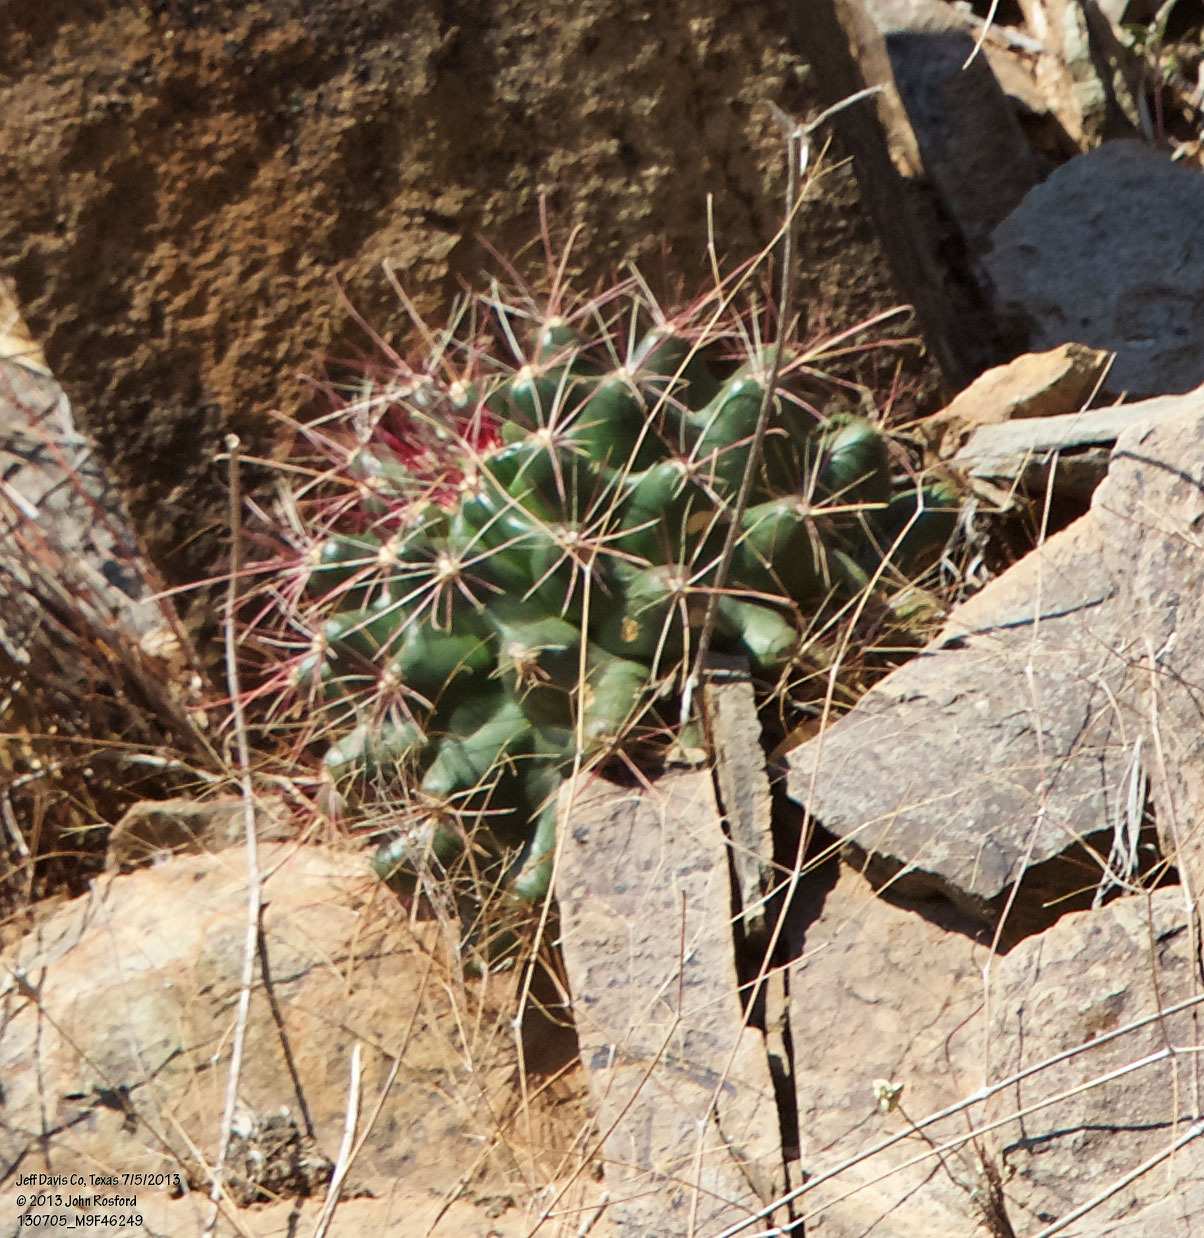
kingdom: Plantae
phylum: Tracheophyta
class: Magnoliopsida
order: Caryophyllales
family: Cactaceae
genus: Bisnaga
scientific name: Bisnaga hamatacantha
